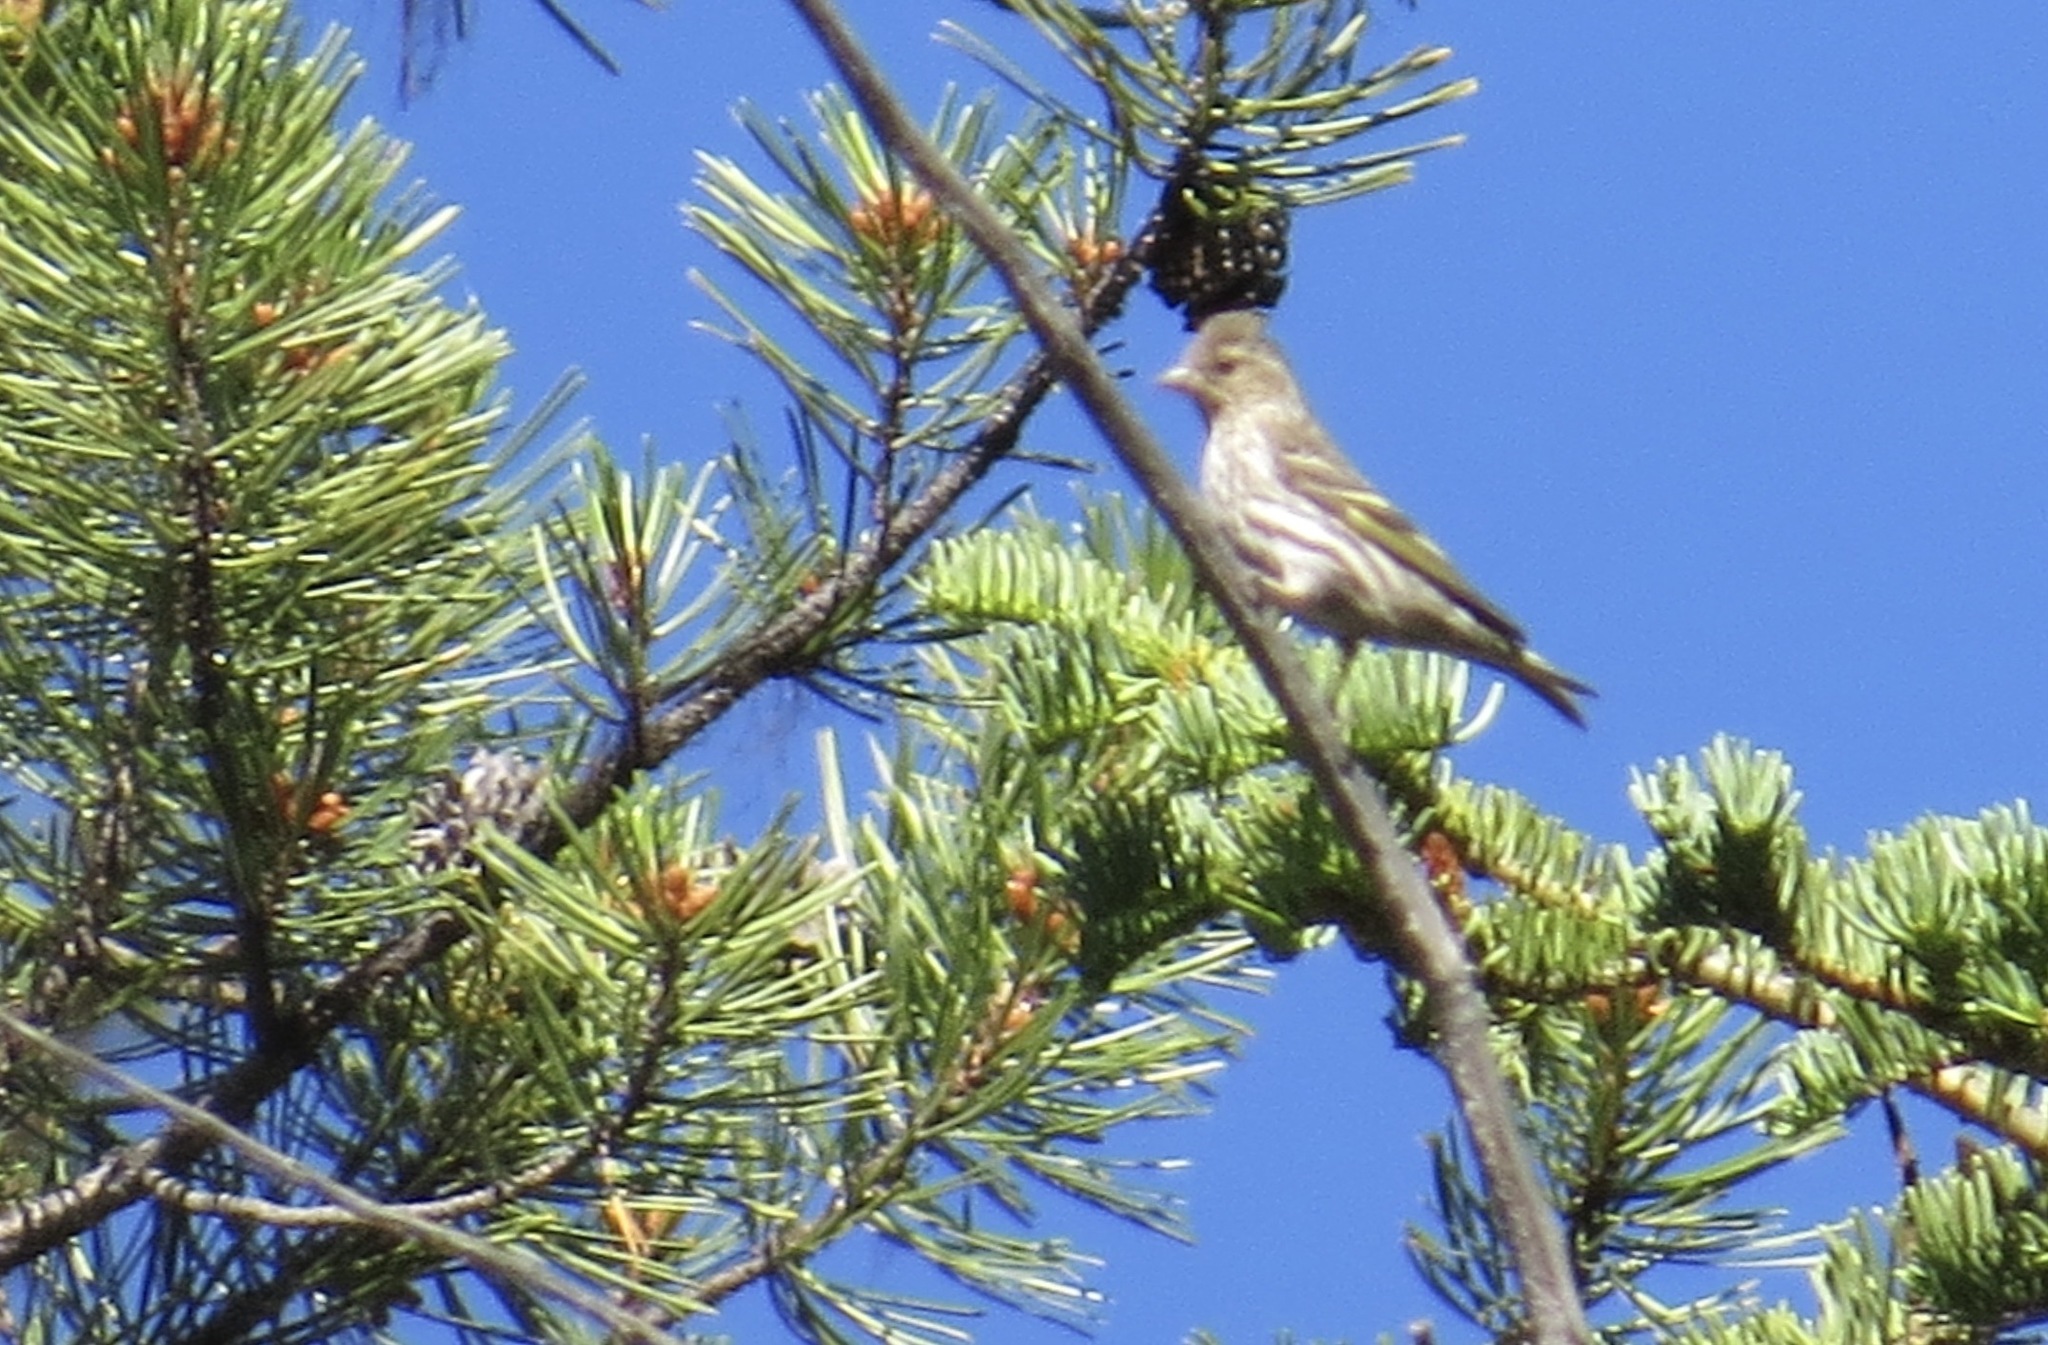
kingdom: Animalia
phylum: Chordata
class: Aves
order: Passeriformes
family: Fringillidae
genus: Spinus
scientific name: Spinus pinus
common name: Pine siskin
